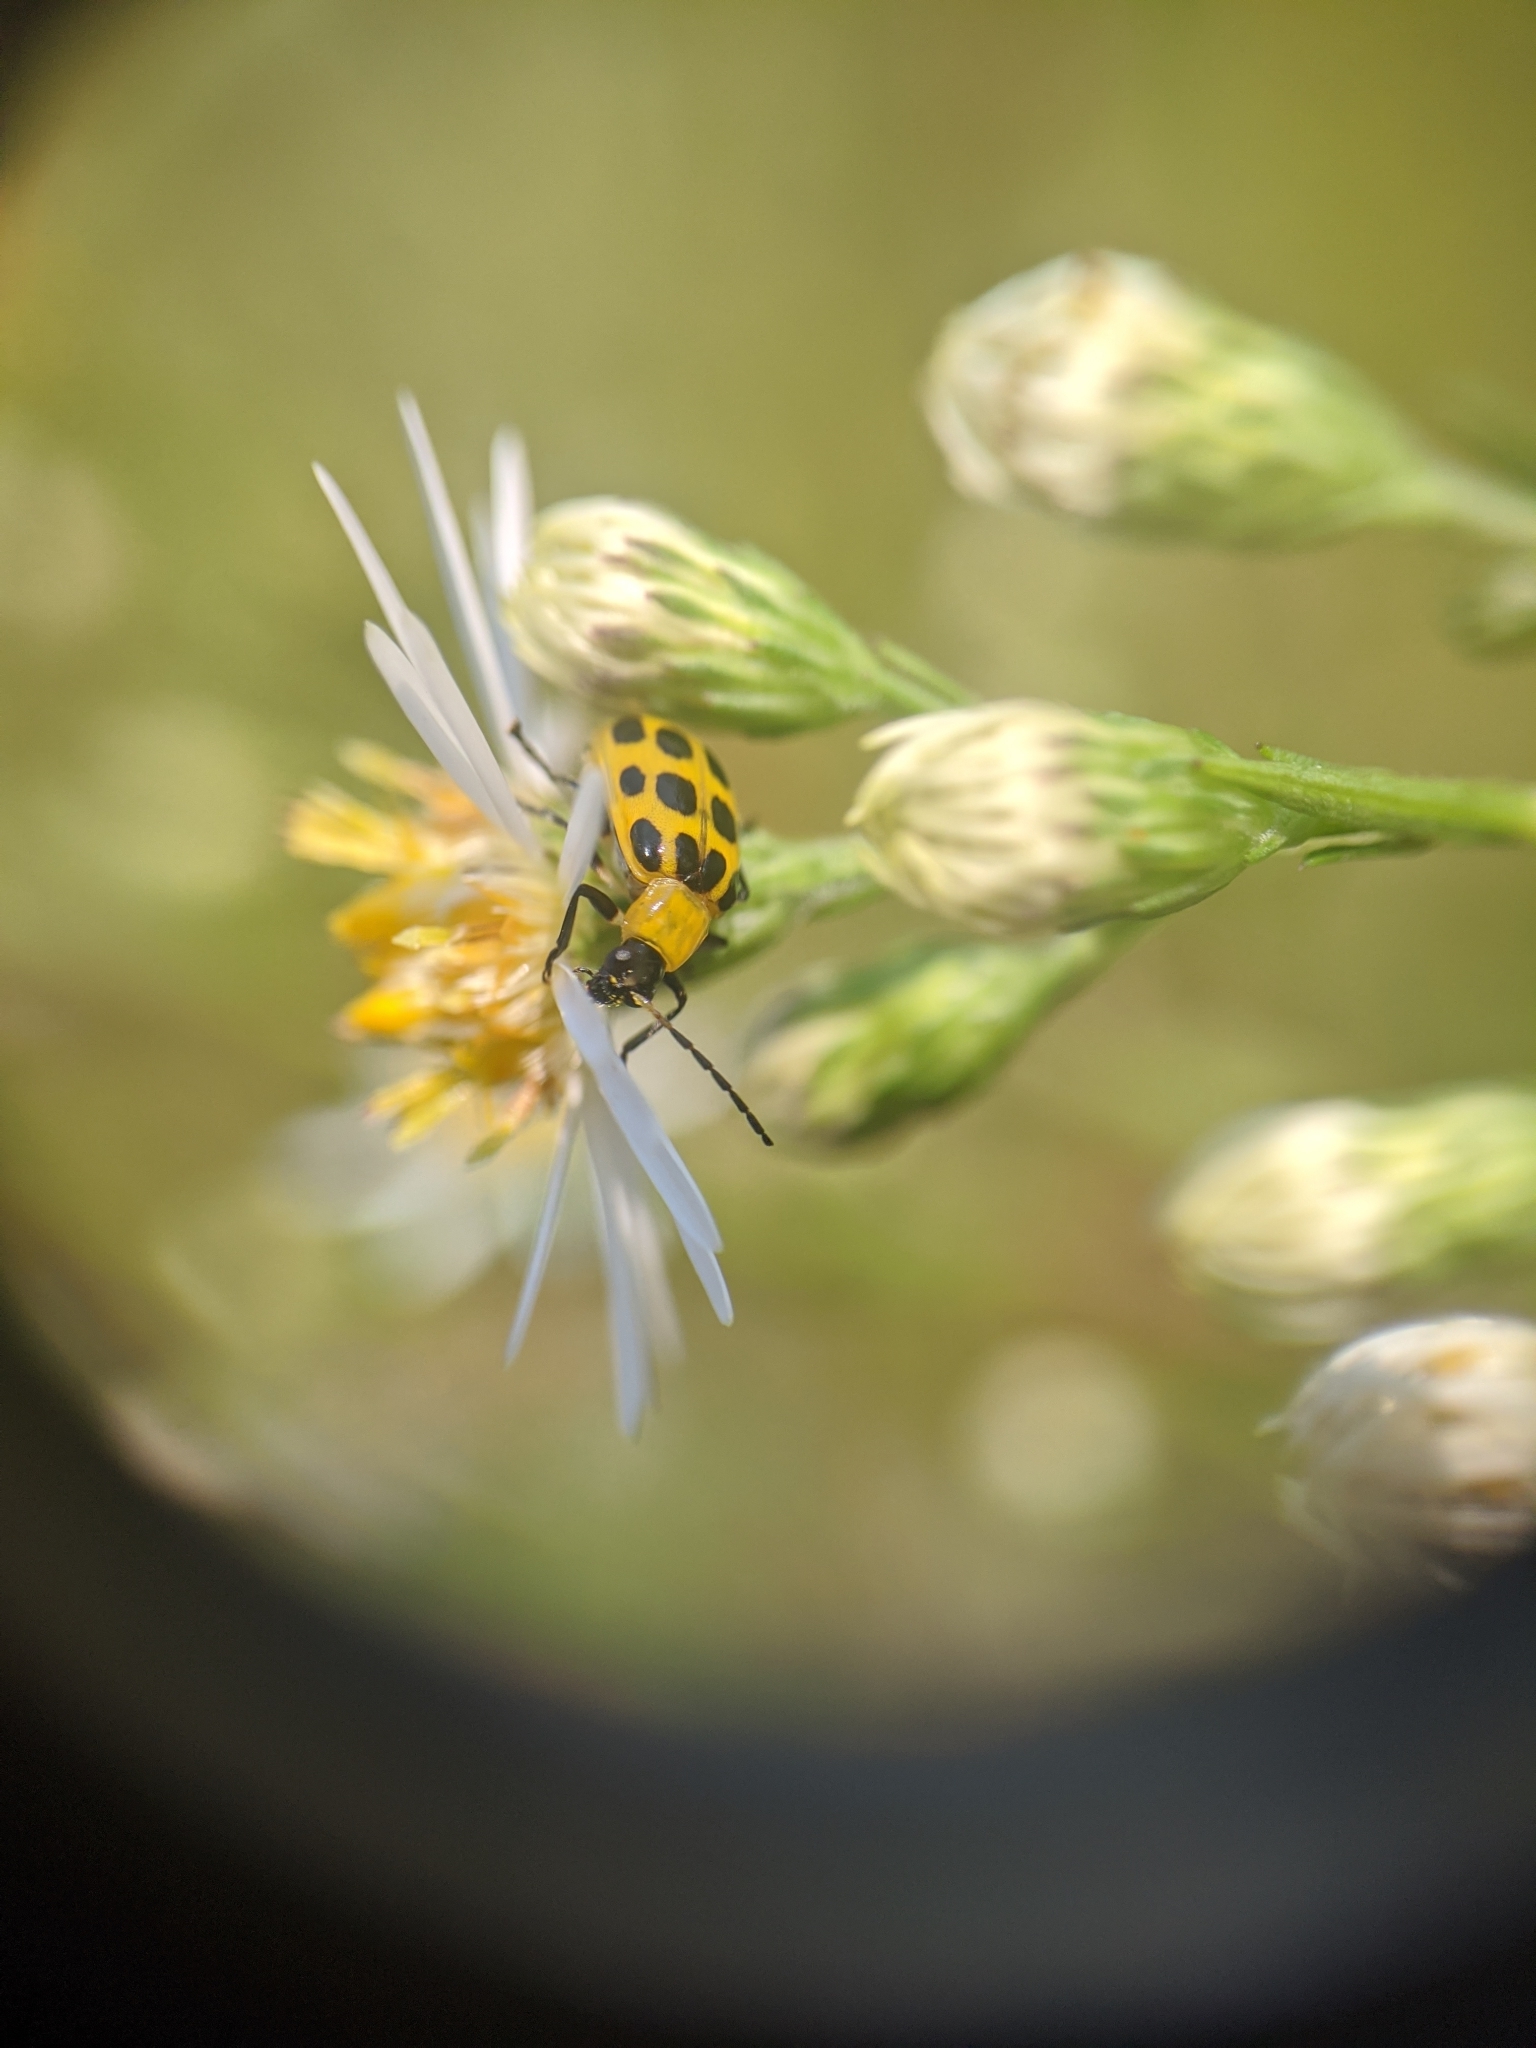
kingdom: Animalia
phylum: Arthropoda
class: Insecta
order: Coleoptera
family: Chrysomelidae
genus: Diabrotica
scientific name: Diabrotica undecimpunctata
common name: Spotted cucumber beetle
